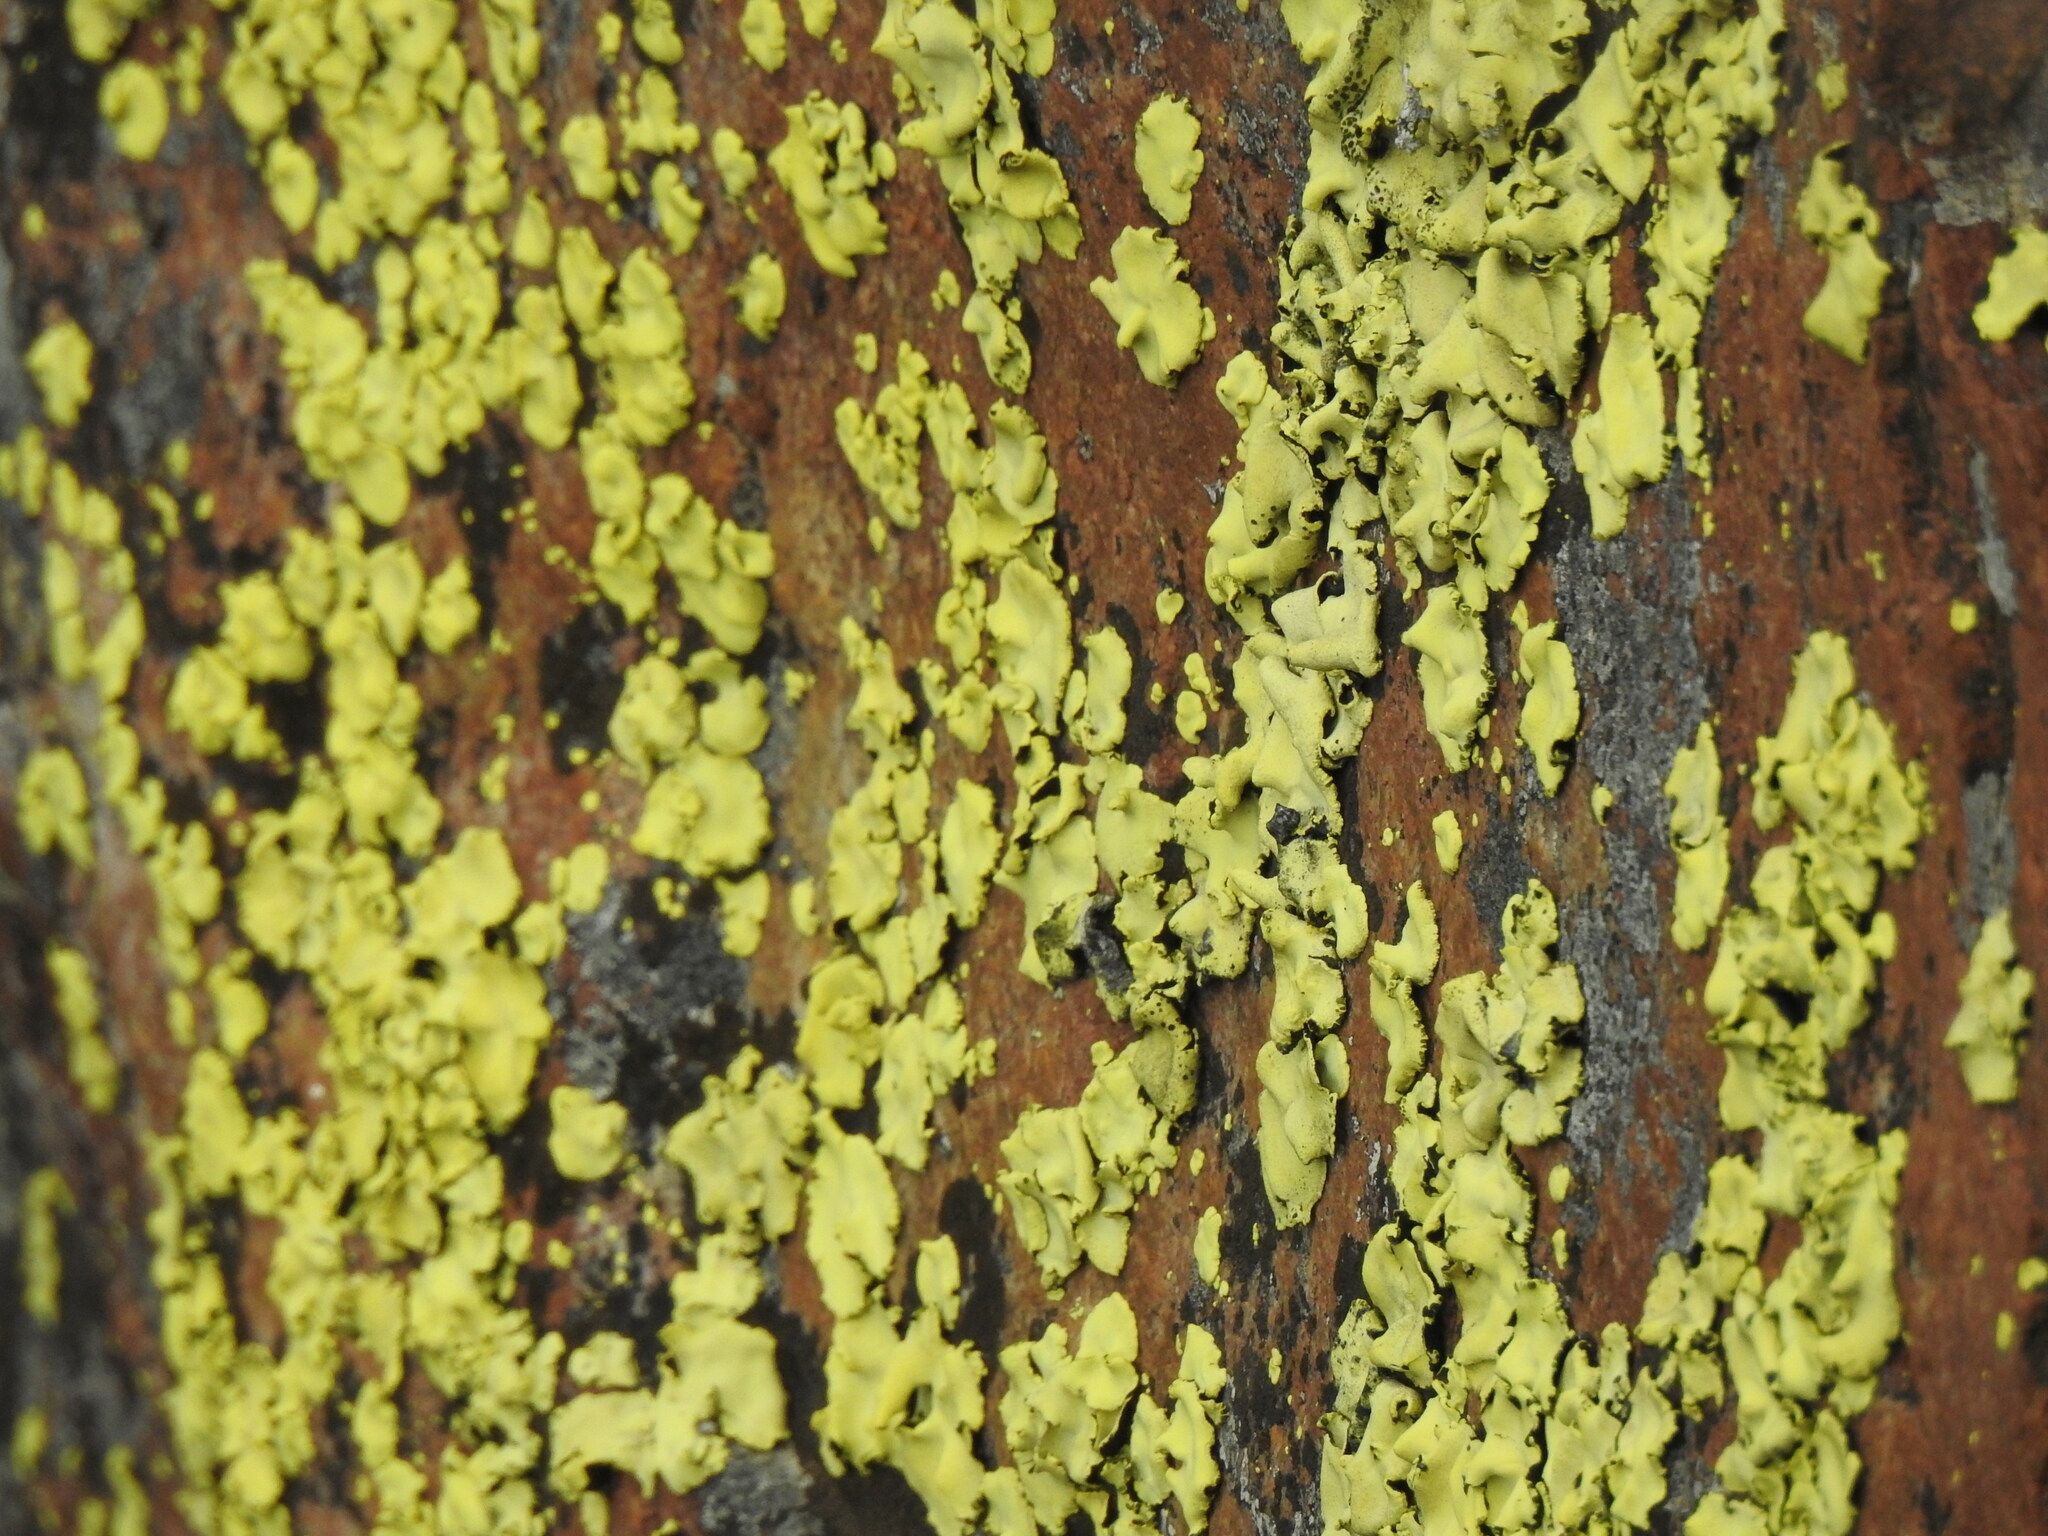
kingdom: Fungi
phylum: Ascomycota
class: Lecanoromycetes
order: Caliciales
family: Caliciaceae
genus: Dermatiscum
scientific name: Dermatiscum thunbergii
